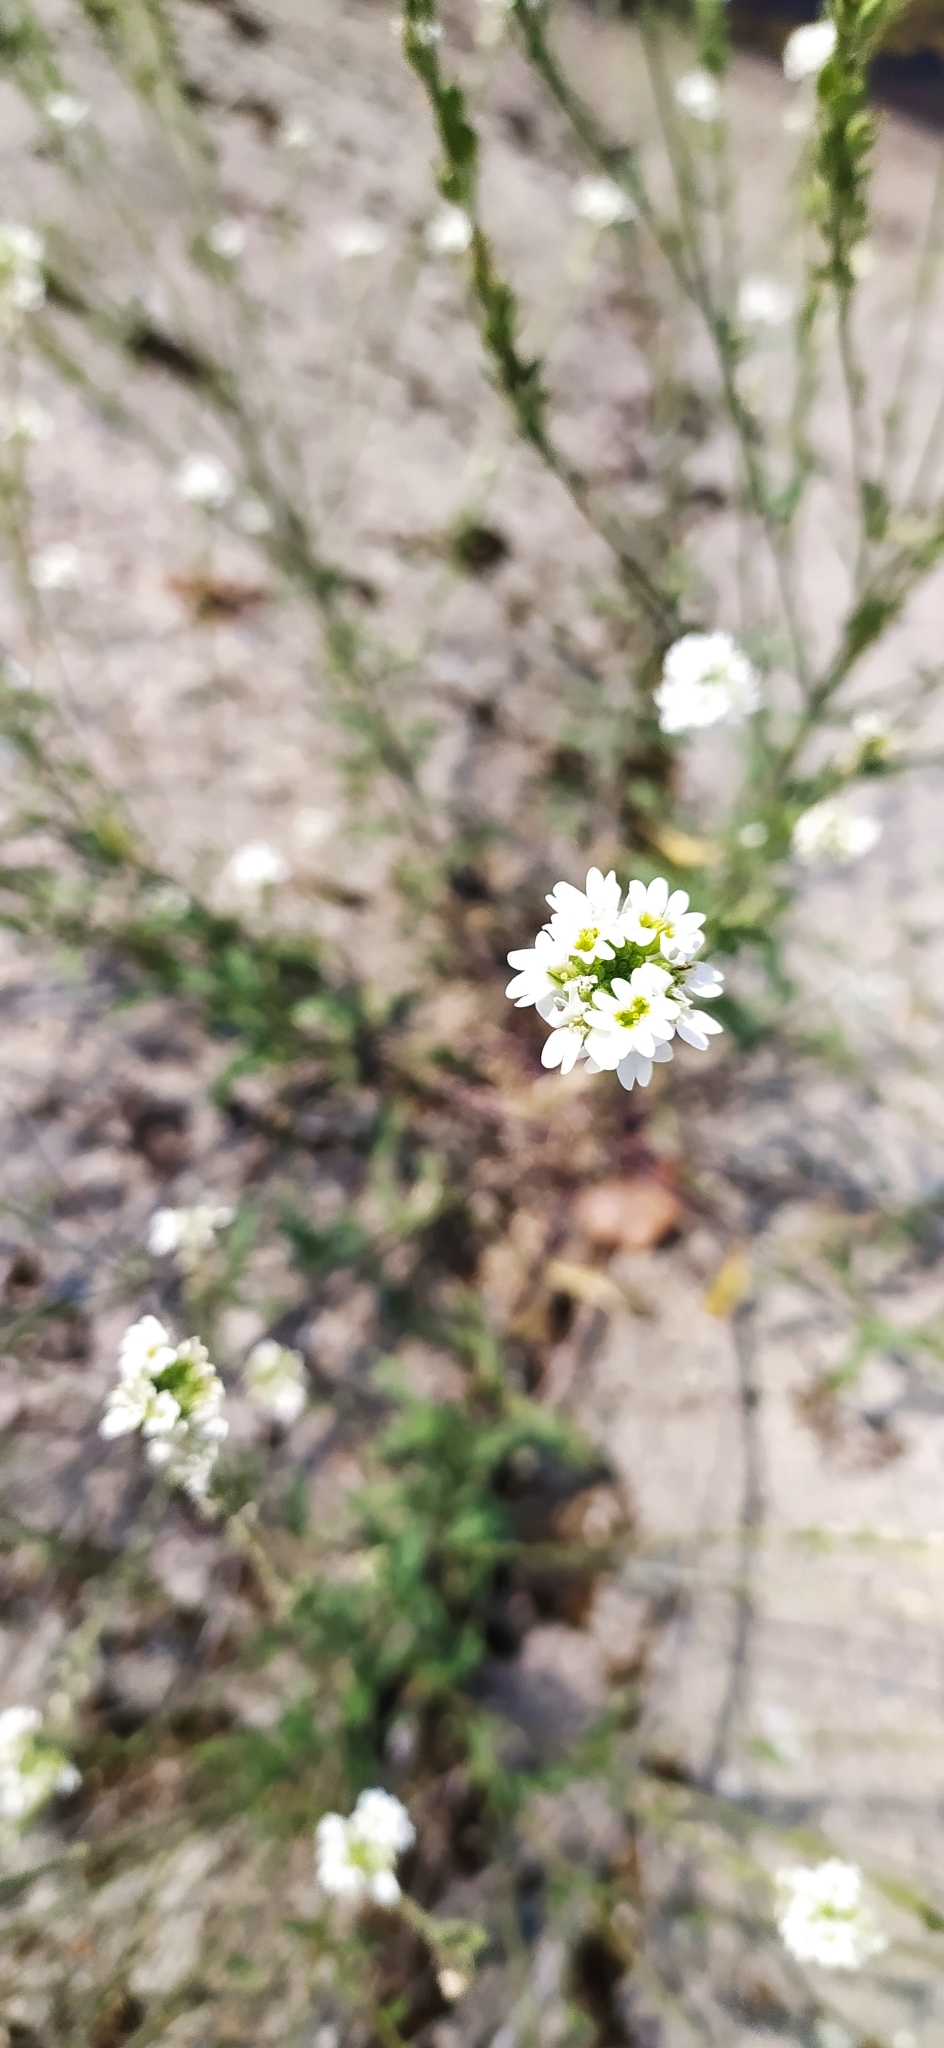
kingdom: Plantae
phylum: Tracheophyta
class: Magnoliopsida
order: Brassicales
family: Brassicaceae
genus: Berteroa
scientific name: Berteroa incana
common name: Hoary alison
